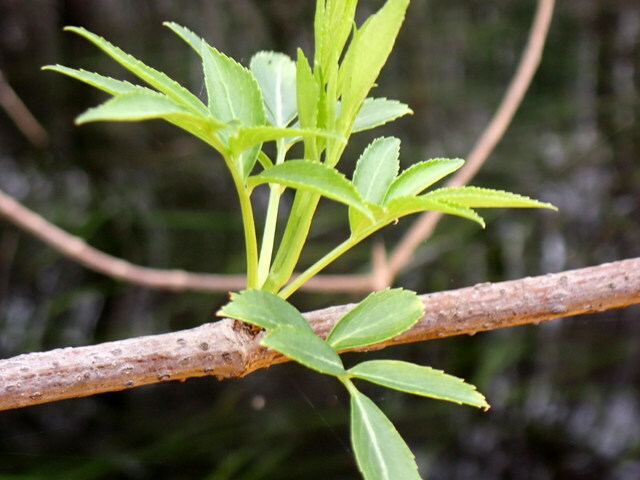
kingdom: Plantae
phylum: Tracheophyta
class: Magnoliopsida
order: Dipsacales
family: Viburnaceae
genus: Sambucus
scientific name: Sambucus canadensis
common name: American elder
